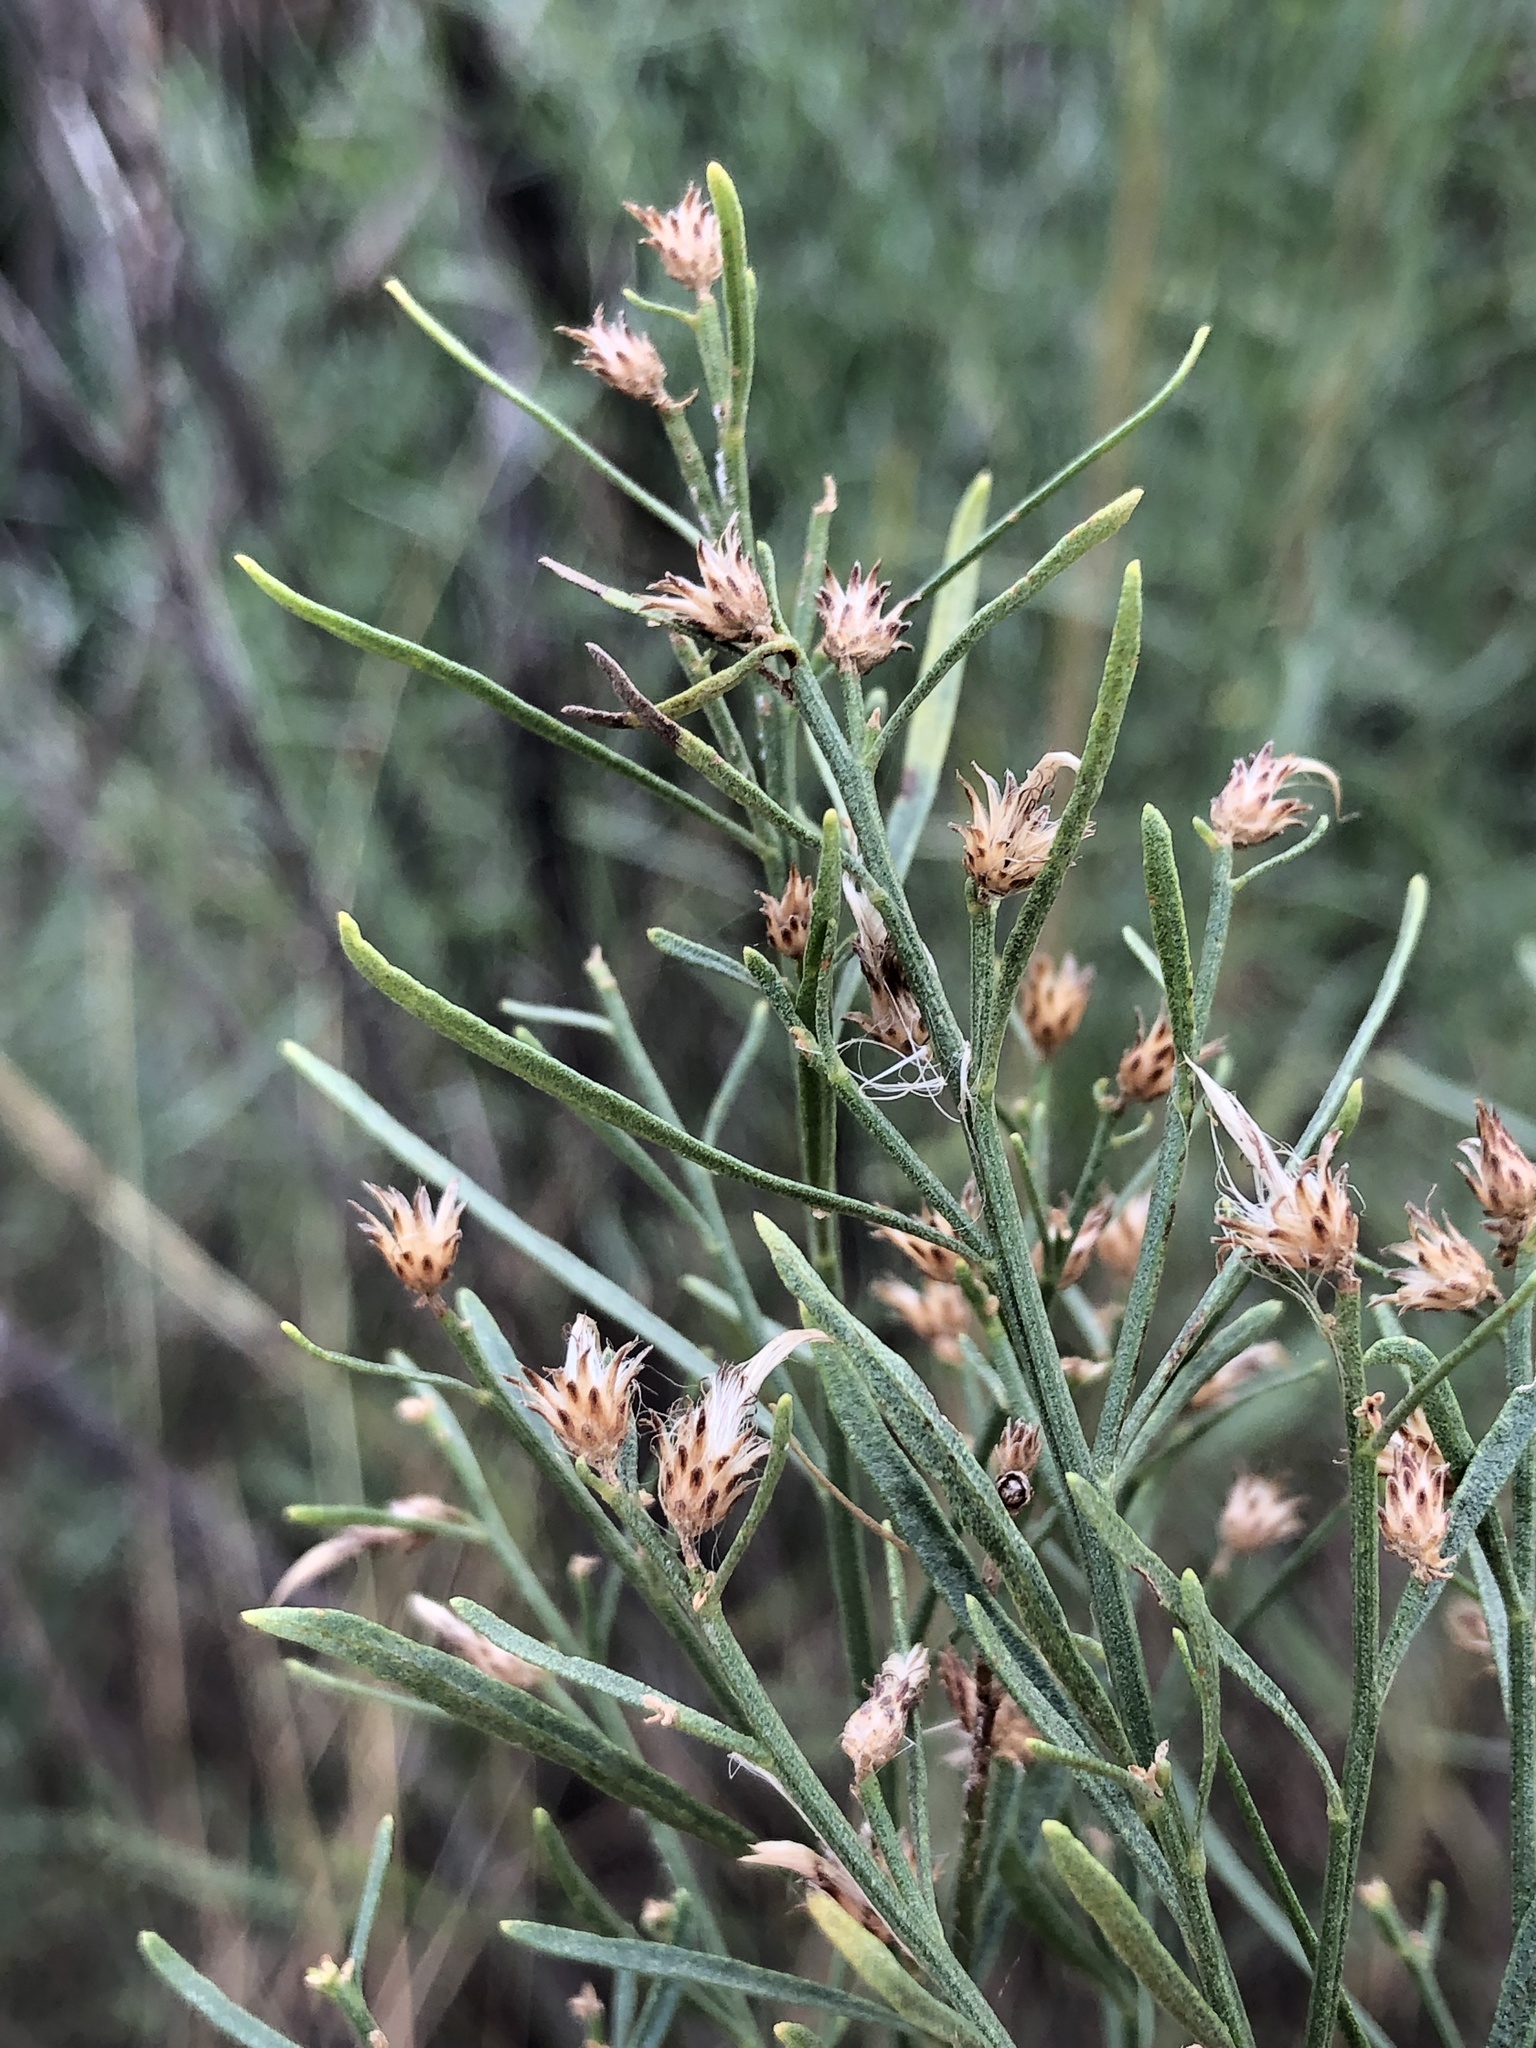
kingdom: Plantae
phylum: Tracheophyta
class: Magnoliopsida
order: Asterales
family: Asteraceae
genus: Baccharis
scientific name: Baccharis neglecta
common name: Roosevelt-weed
